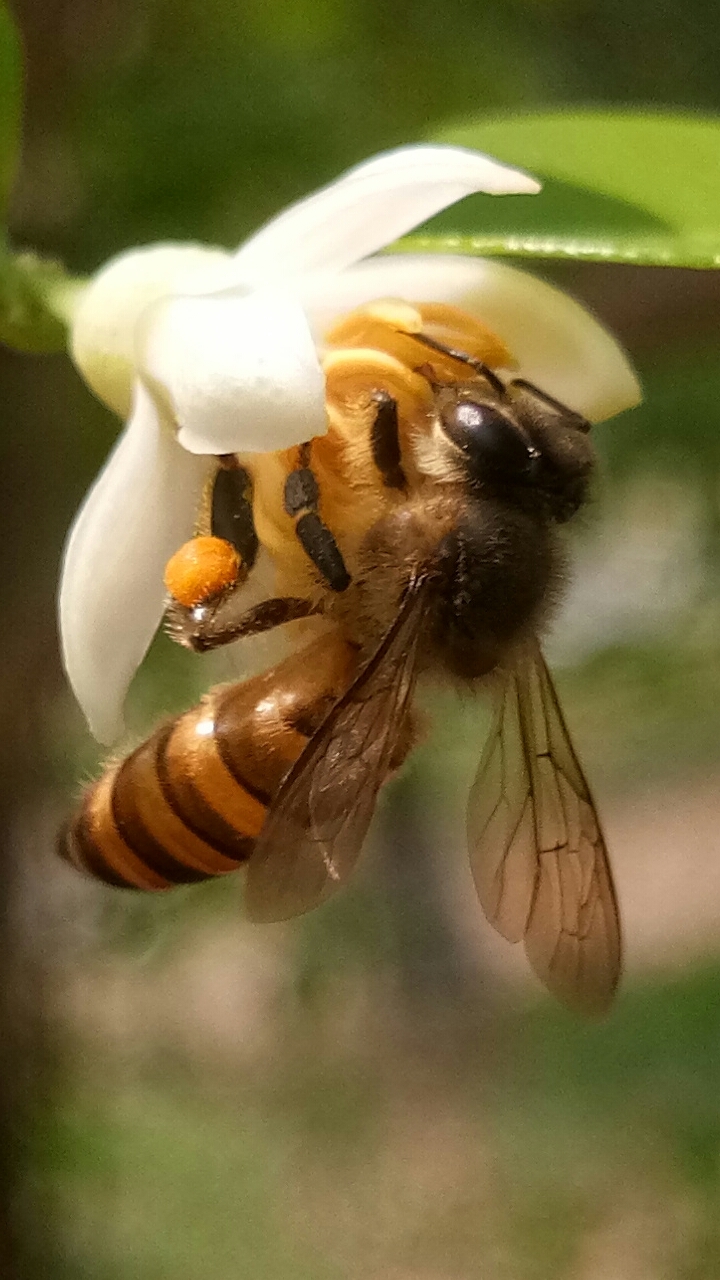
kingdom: Animalia
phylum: Arthropoda
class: Insecta
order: Hymenoptera
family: Apidae
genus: Apis
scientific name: Apis cerana
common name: Honey bee
